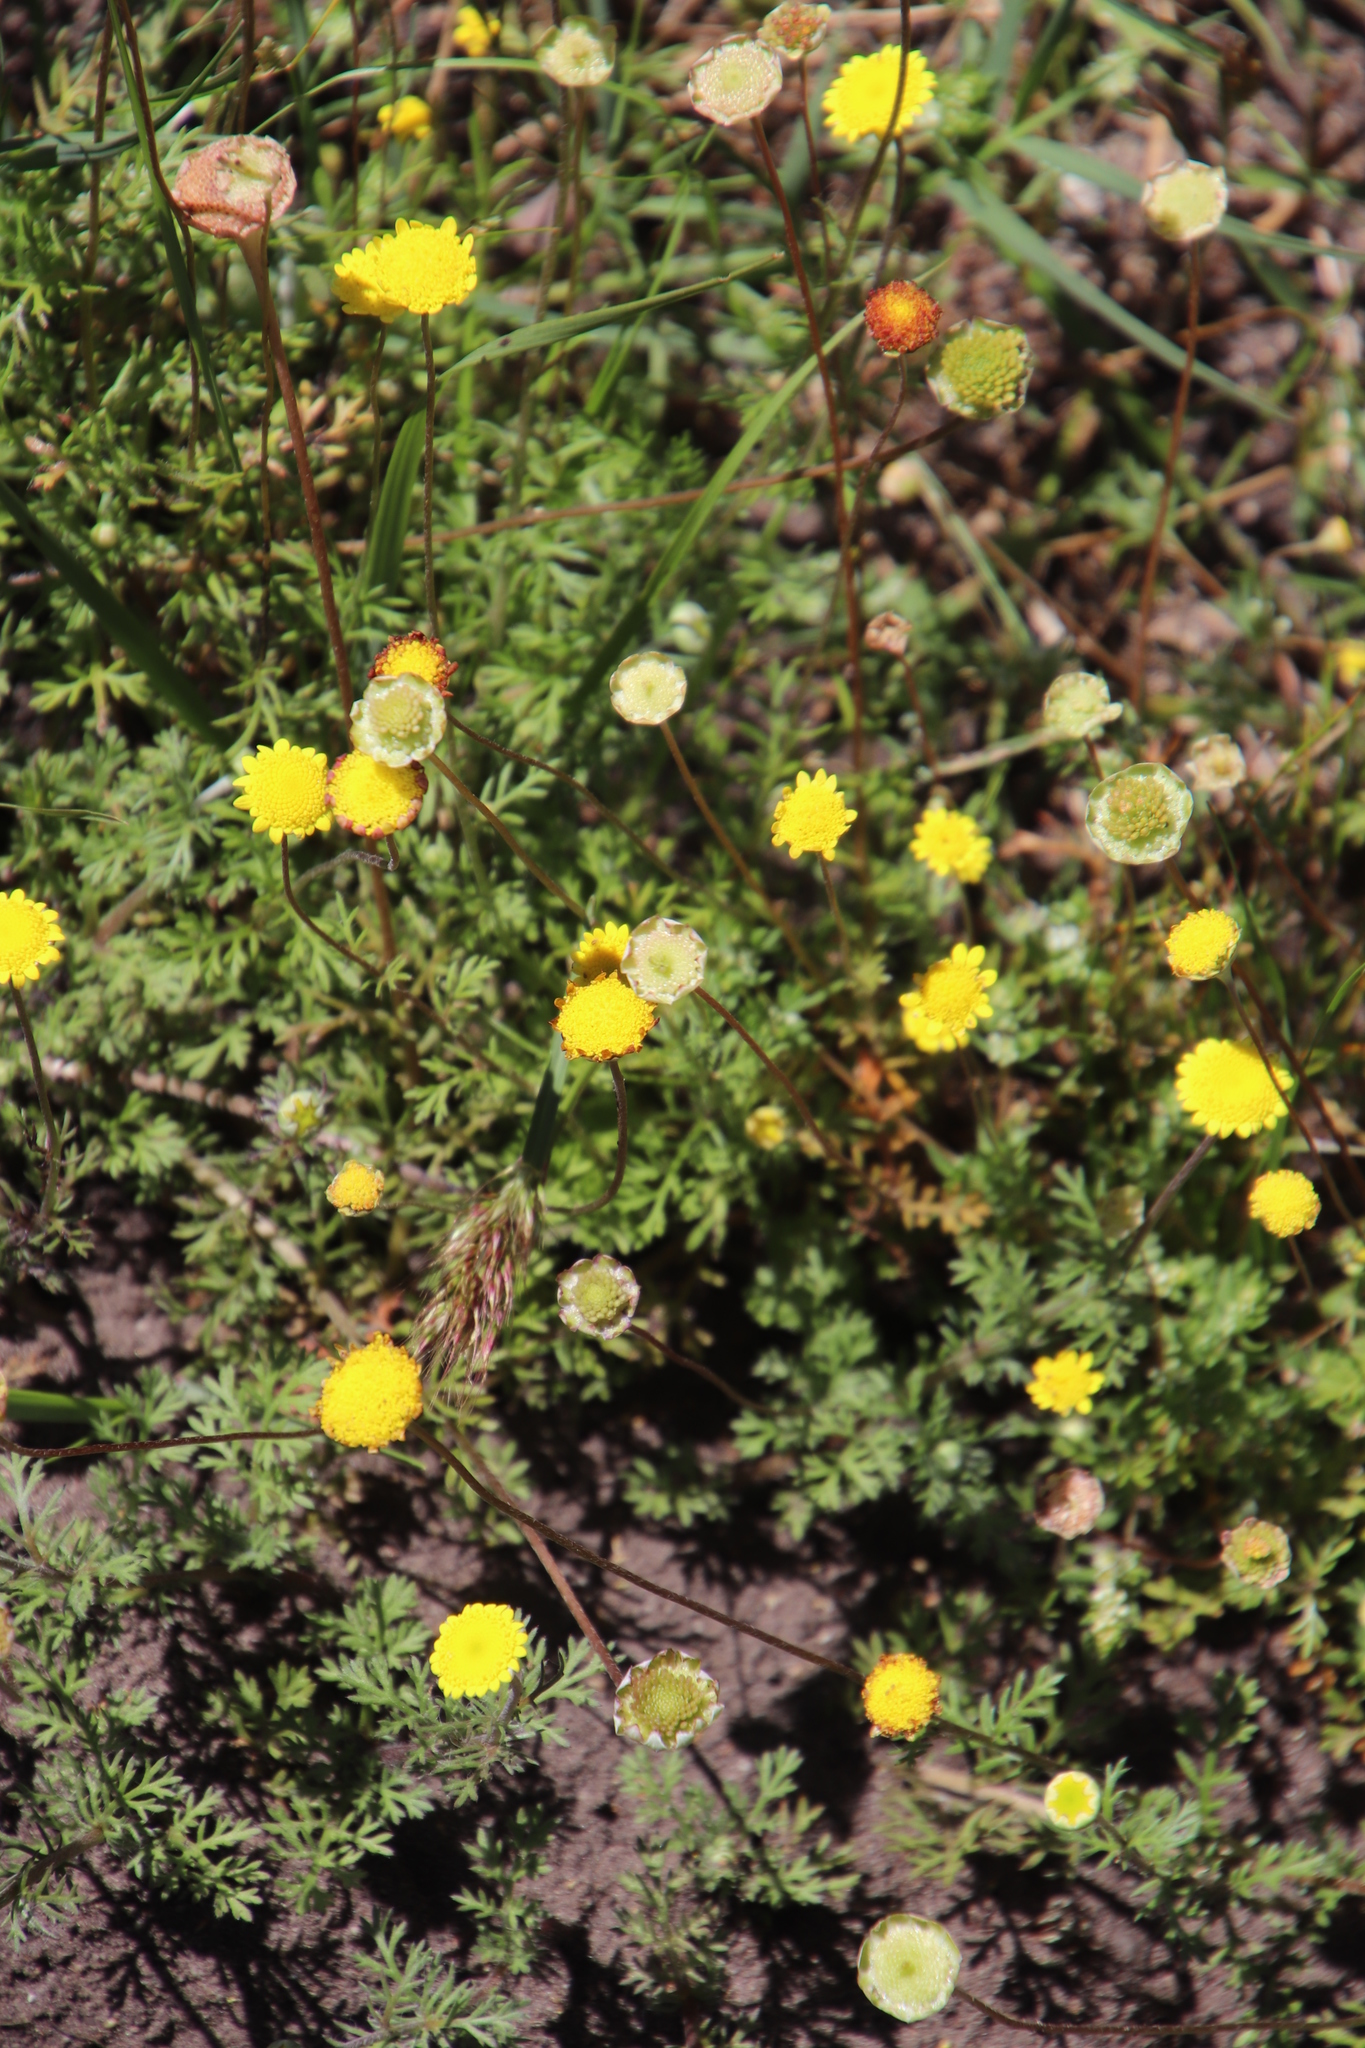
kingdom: Plantae
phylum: Tracheophyta
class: Magnoliopsida
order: Asterales
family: Asteraceae
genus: Cotula
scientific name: Cotula pruinosa
